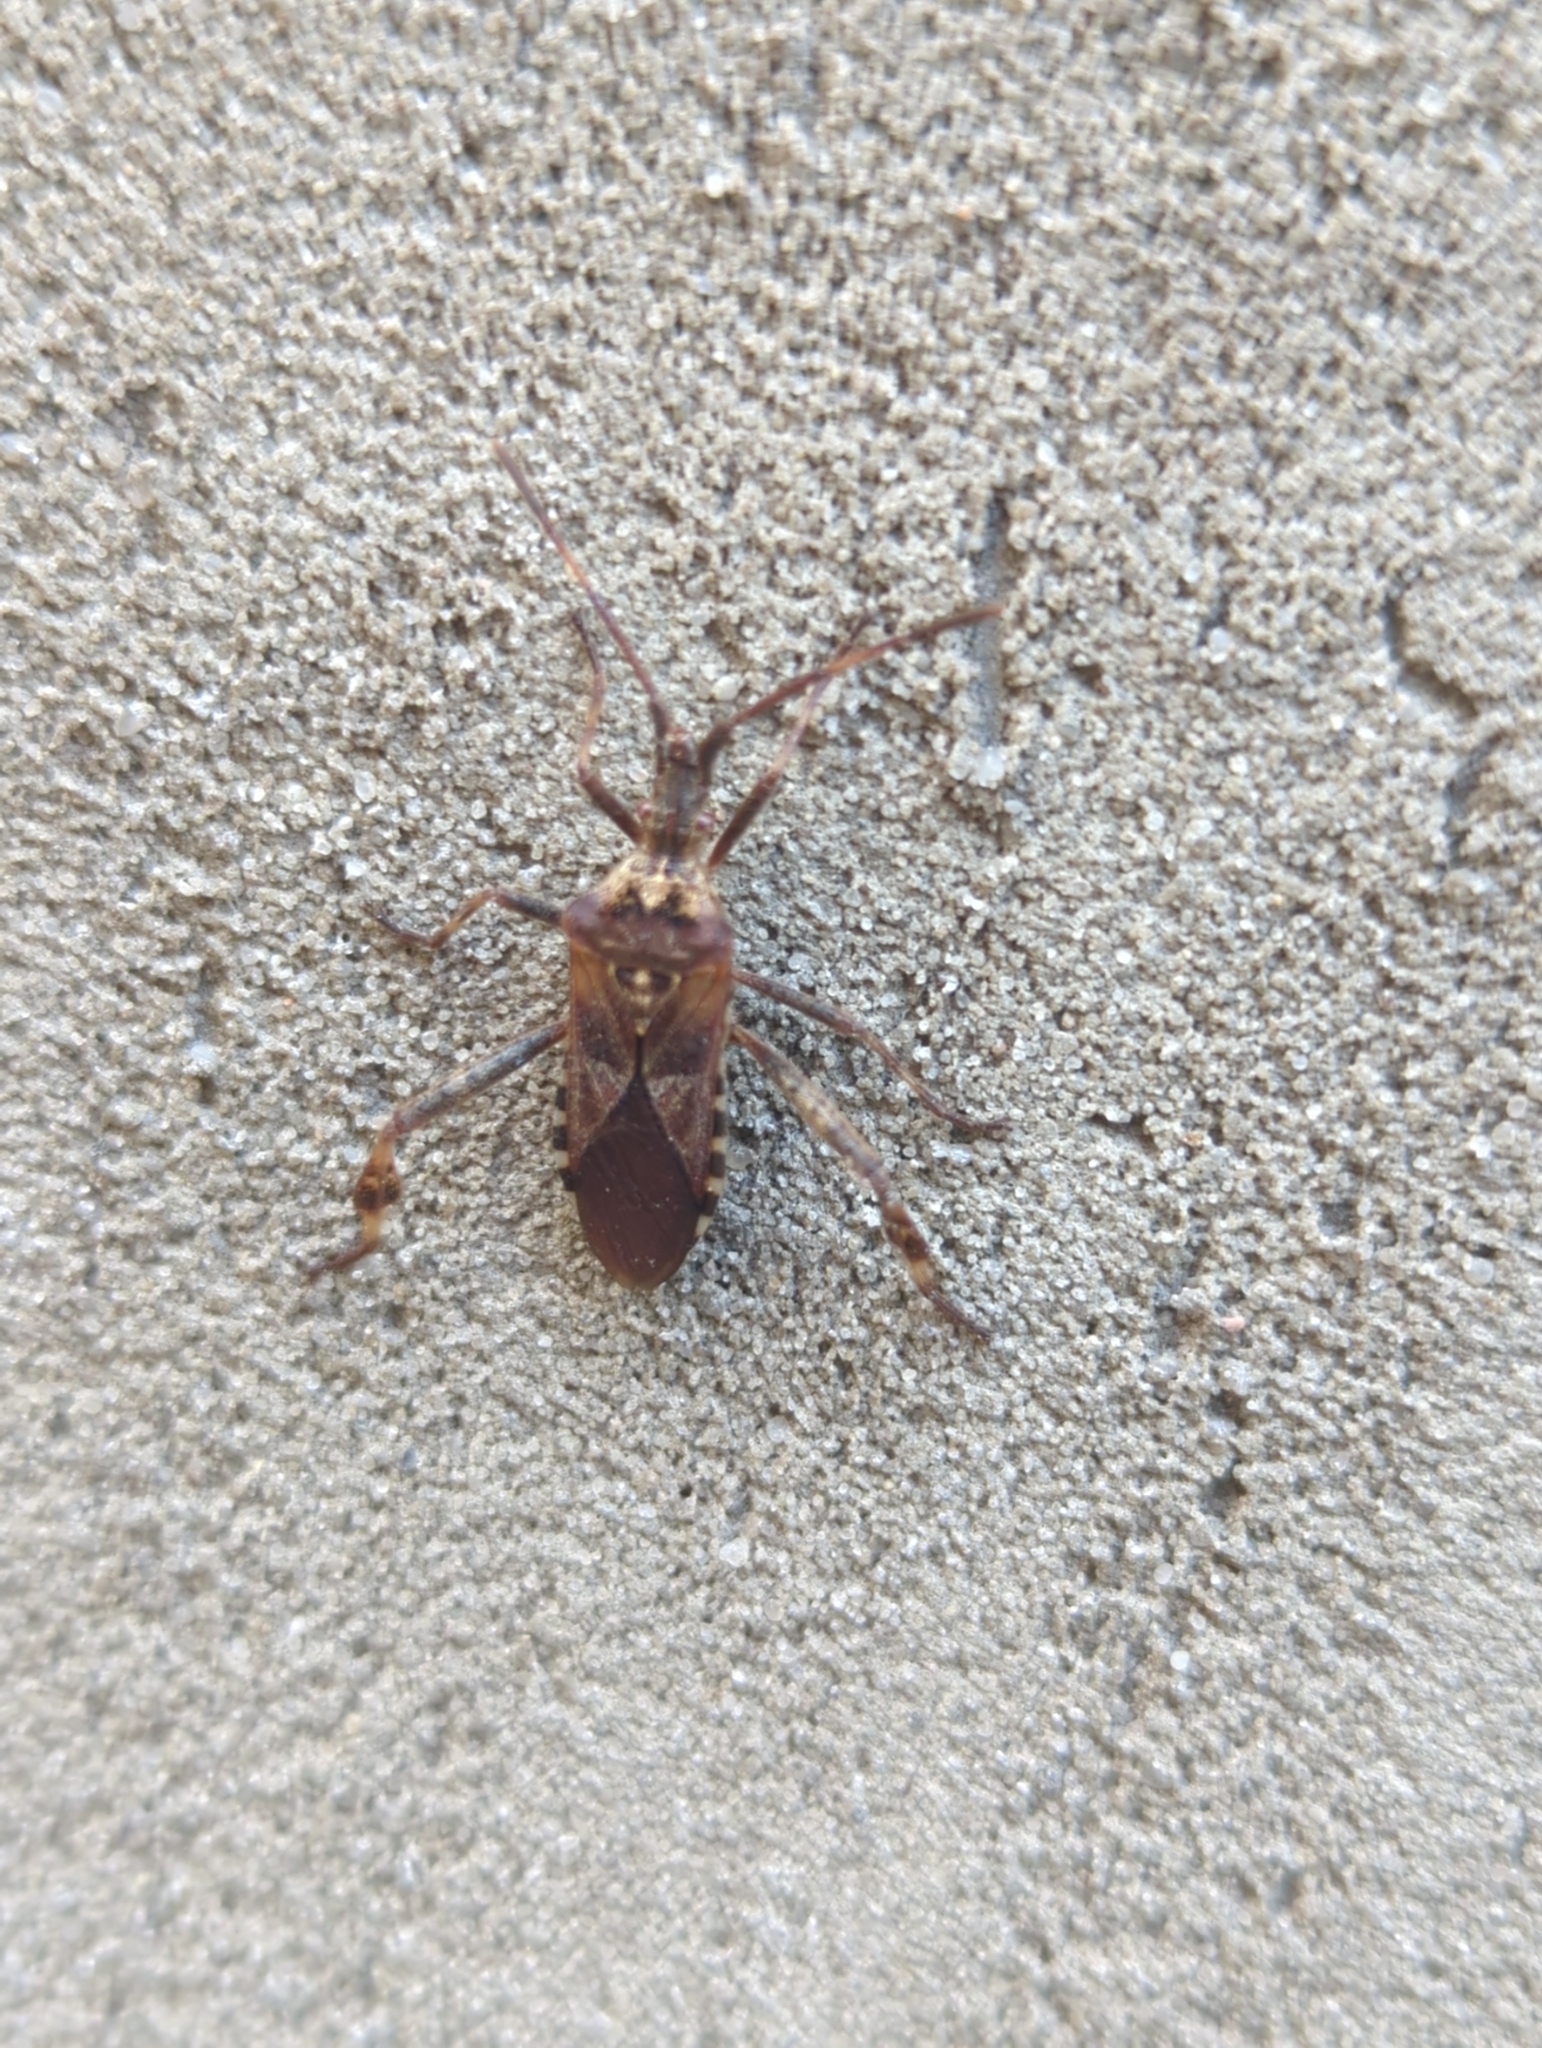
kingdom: Animalia
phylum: Arthropoda
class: Insecta
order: Hemiptera
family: Coreidae
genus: Leptoglossus
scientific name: Leptoglossus occidentalis
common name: Western conifer-seed bug
